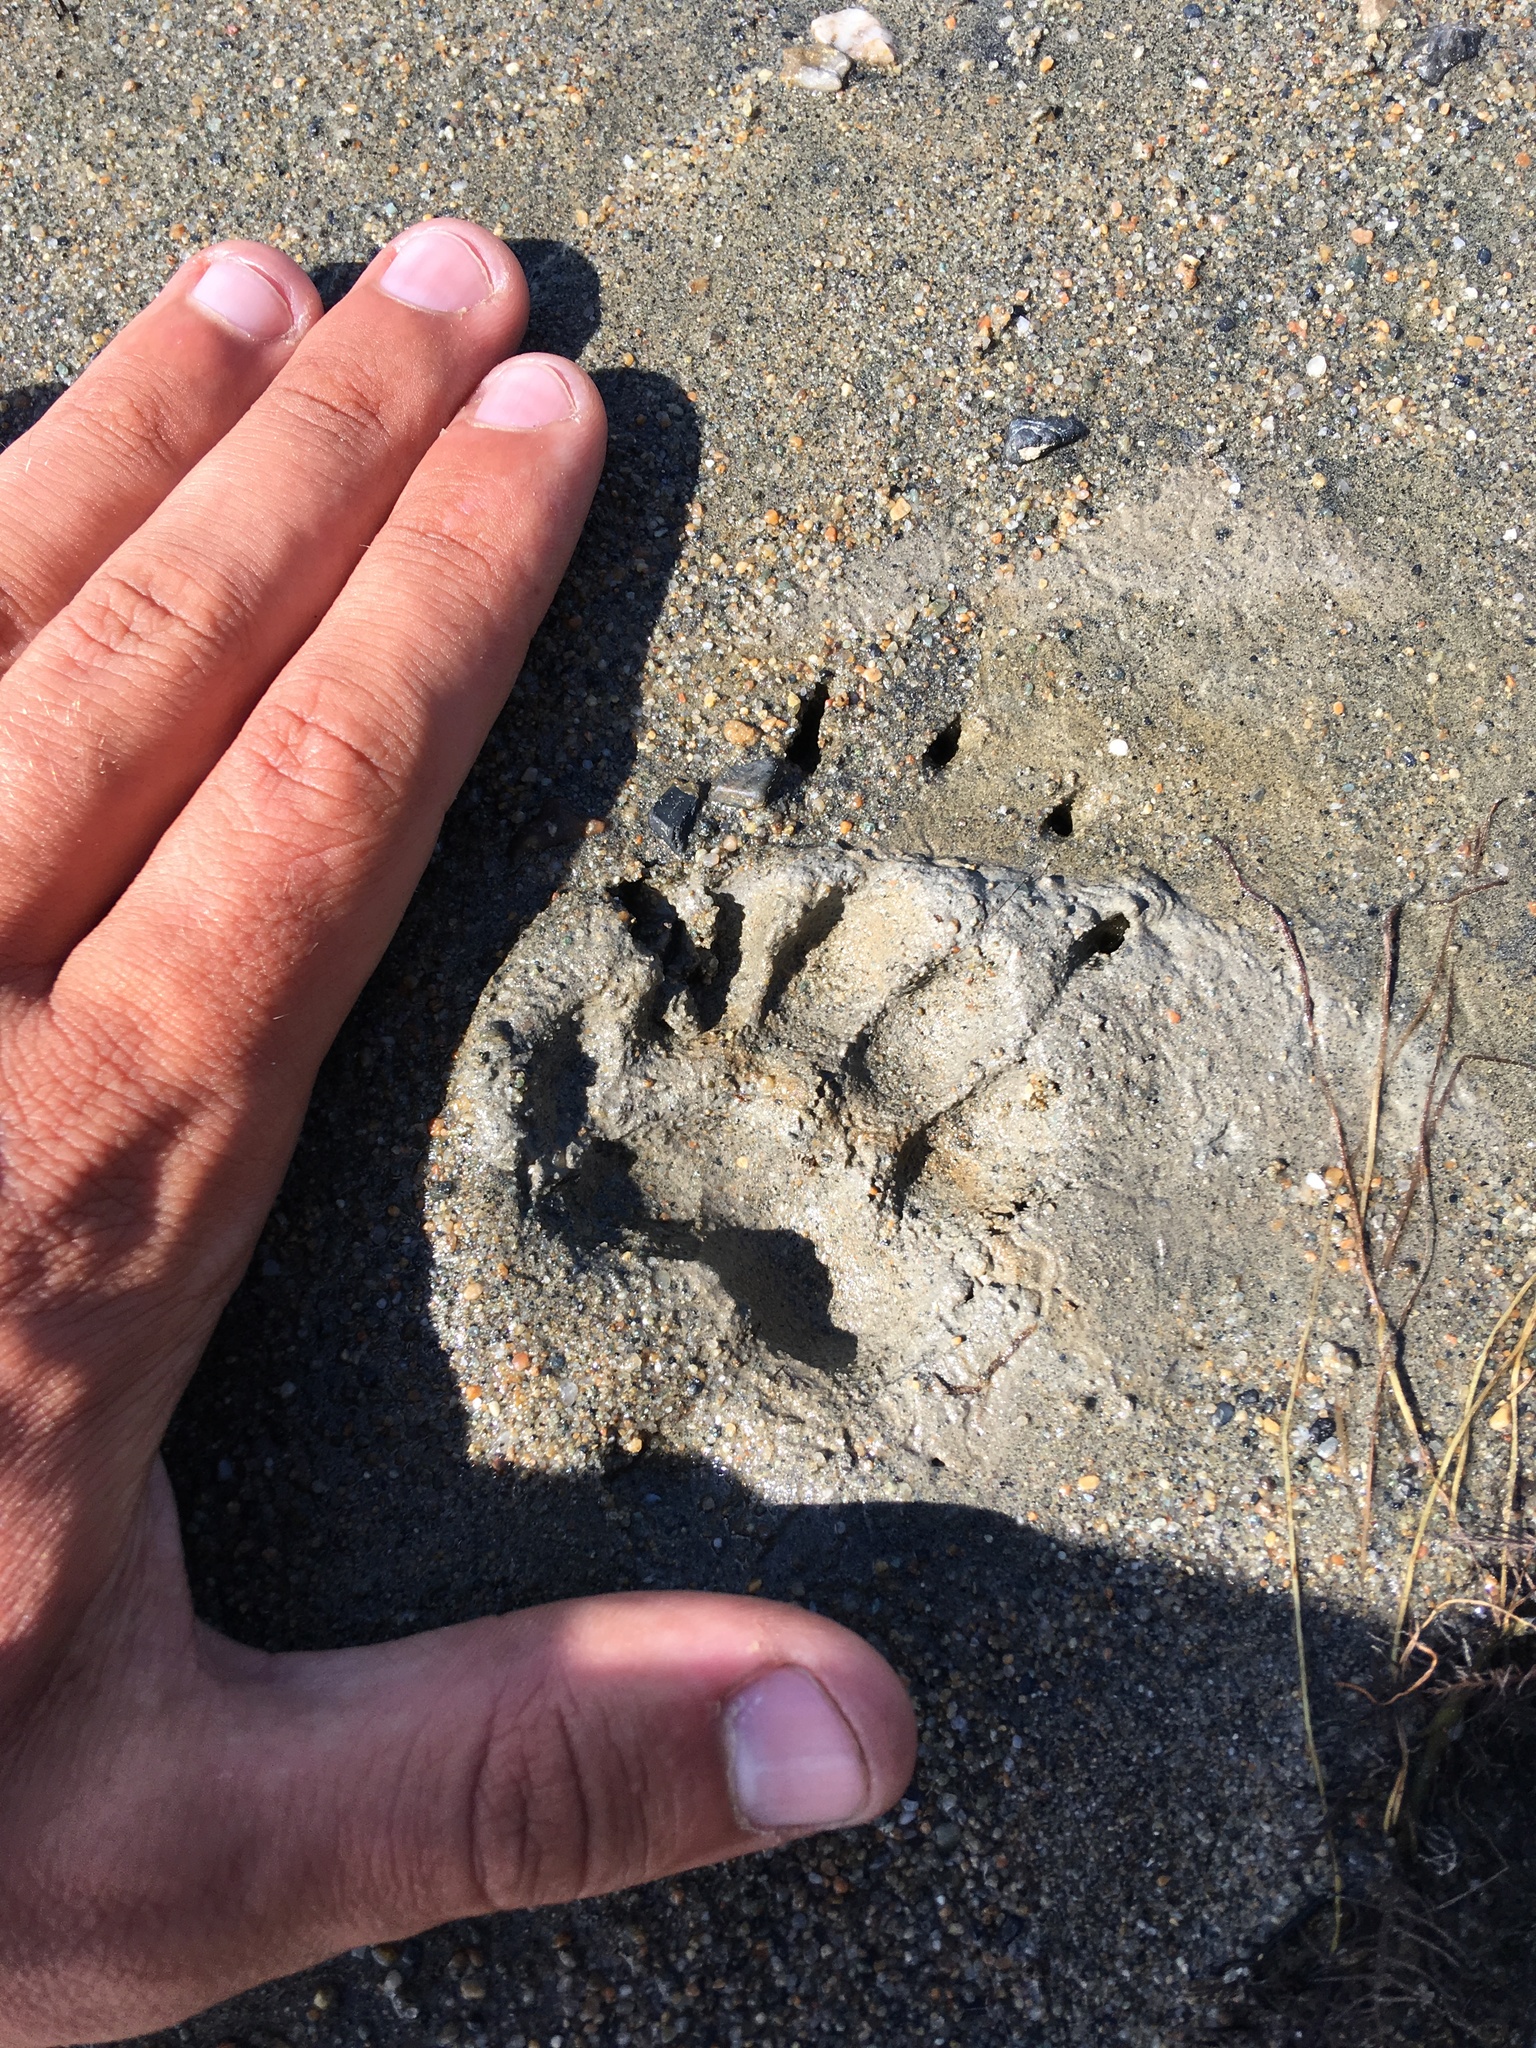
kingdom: Animalia
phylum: Chordata
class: Mammalia
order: Carnivora
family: Mustelidae
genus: Meles
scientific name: Meles leucurus
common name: Asian badger
